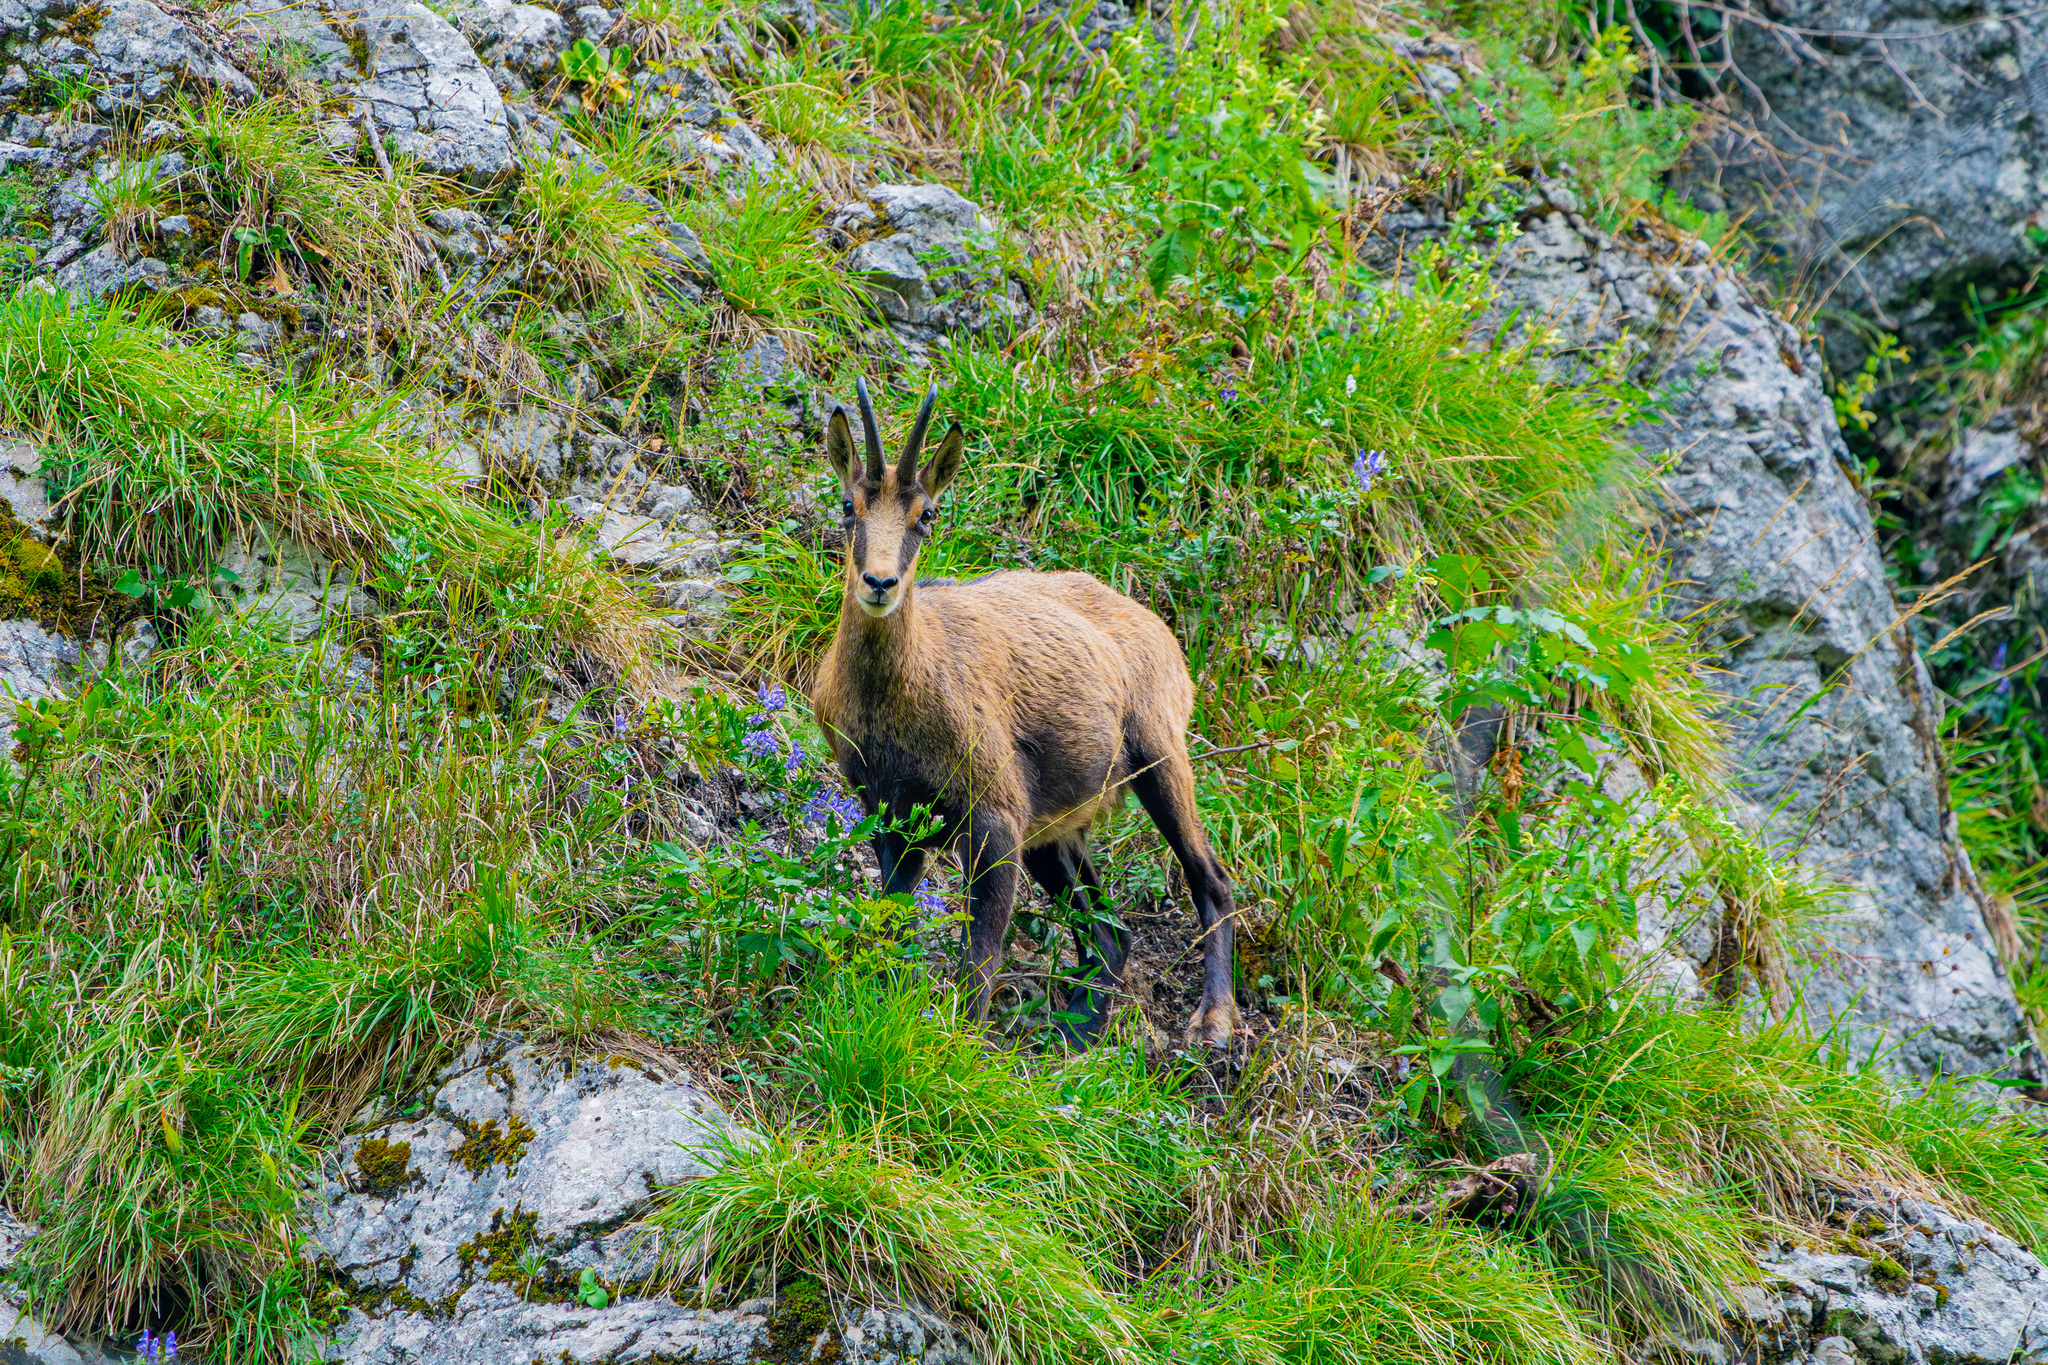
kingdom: Animalia
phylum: Chordata
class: Mammalia
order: Artiodactyla
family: Bovidae
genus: Rupicapra
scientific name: Rupicapra rupicapra
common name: Chamois
